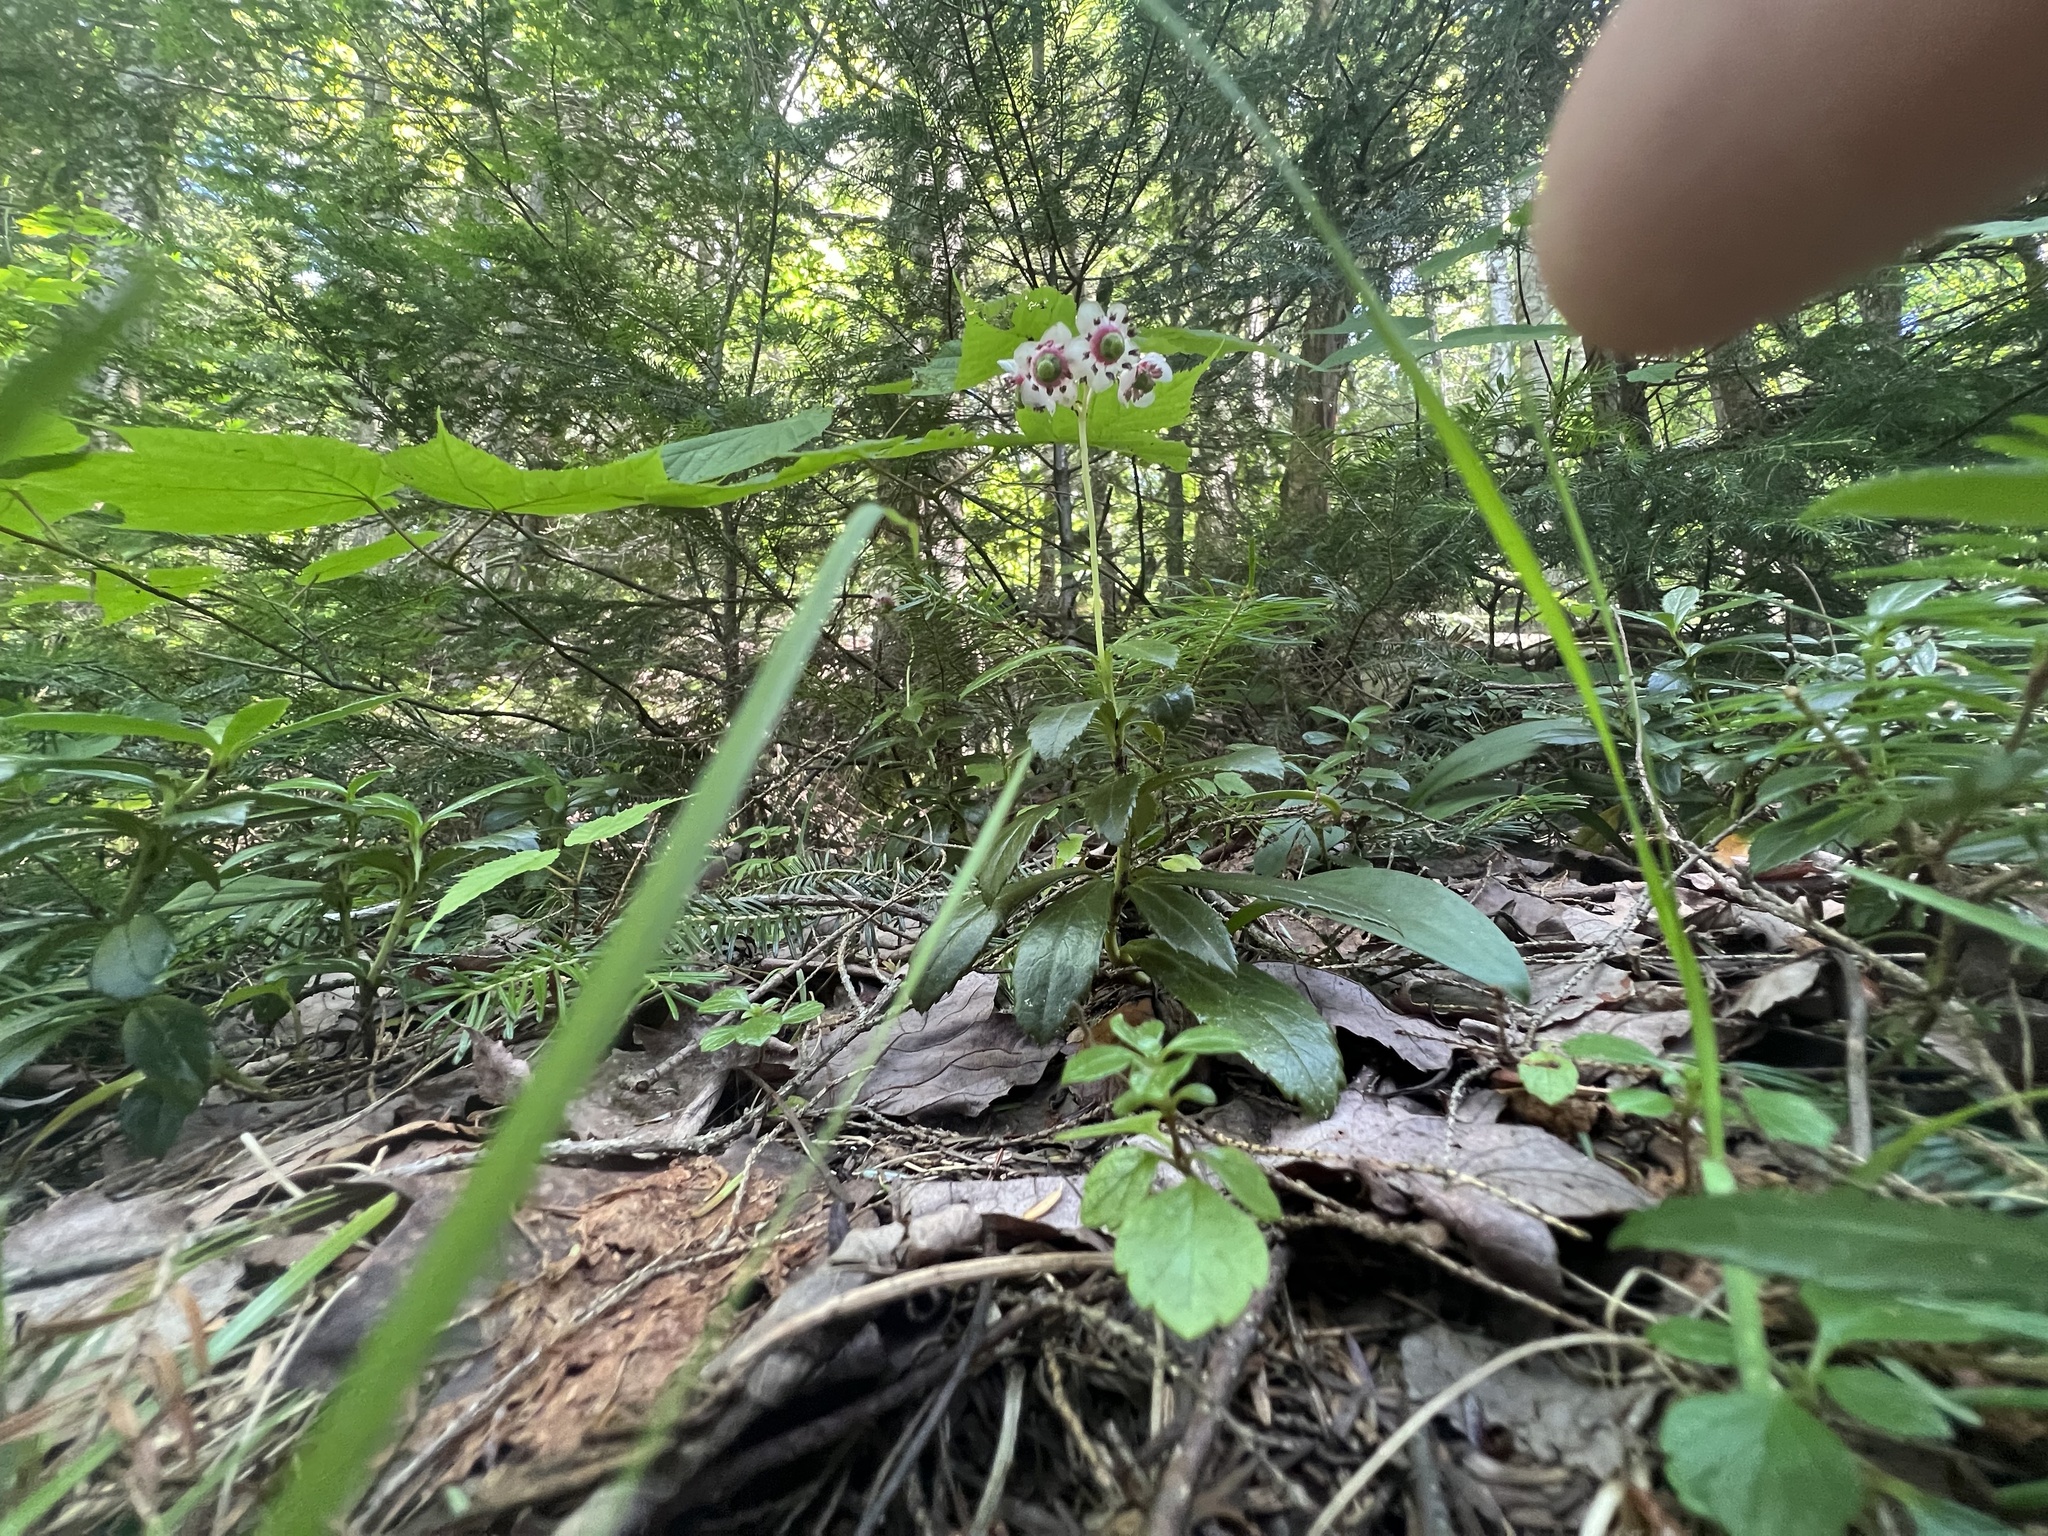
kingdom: Plantae
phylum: Tracheophyta
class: Magnoliopsida
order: Ericales
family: Ericaceae
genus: Chimaphila
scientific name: Chimaphila umbellata
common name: Pipsissewa
